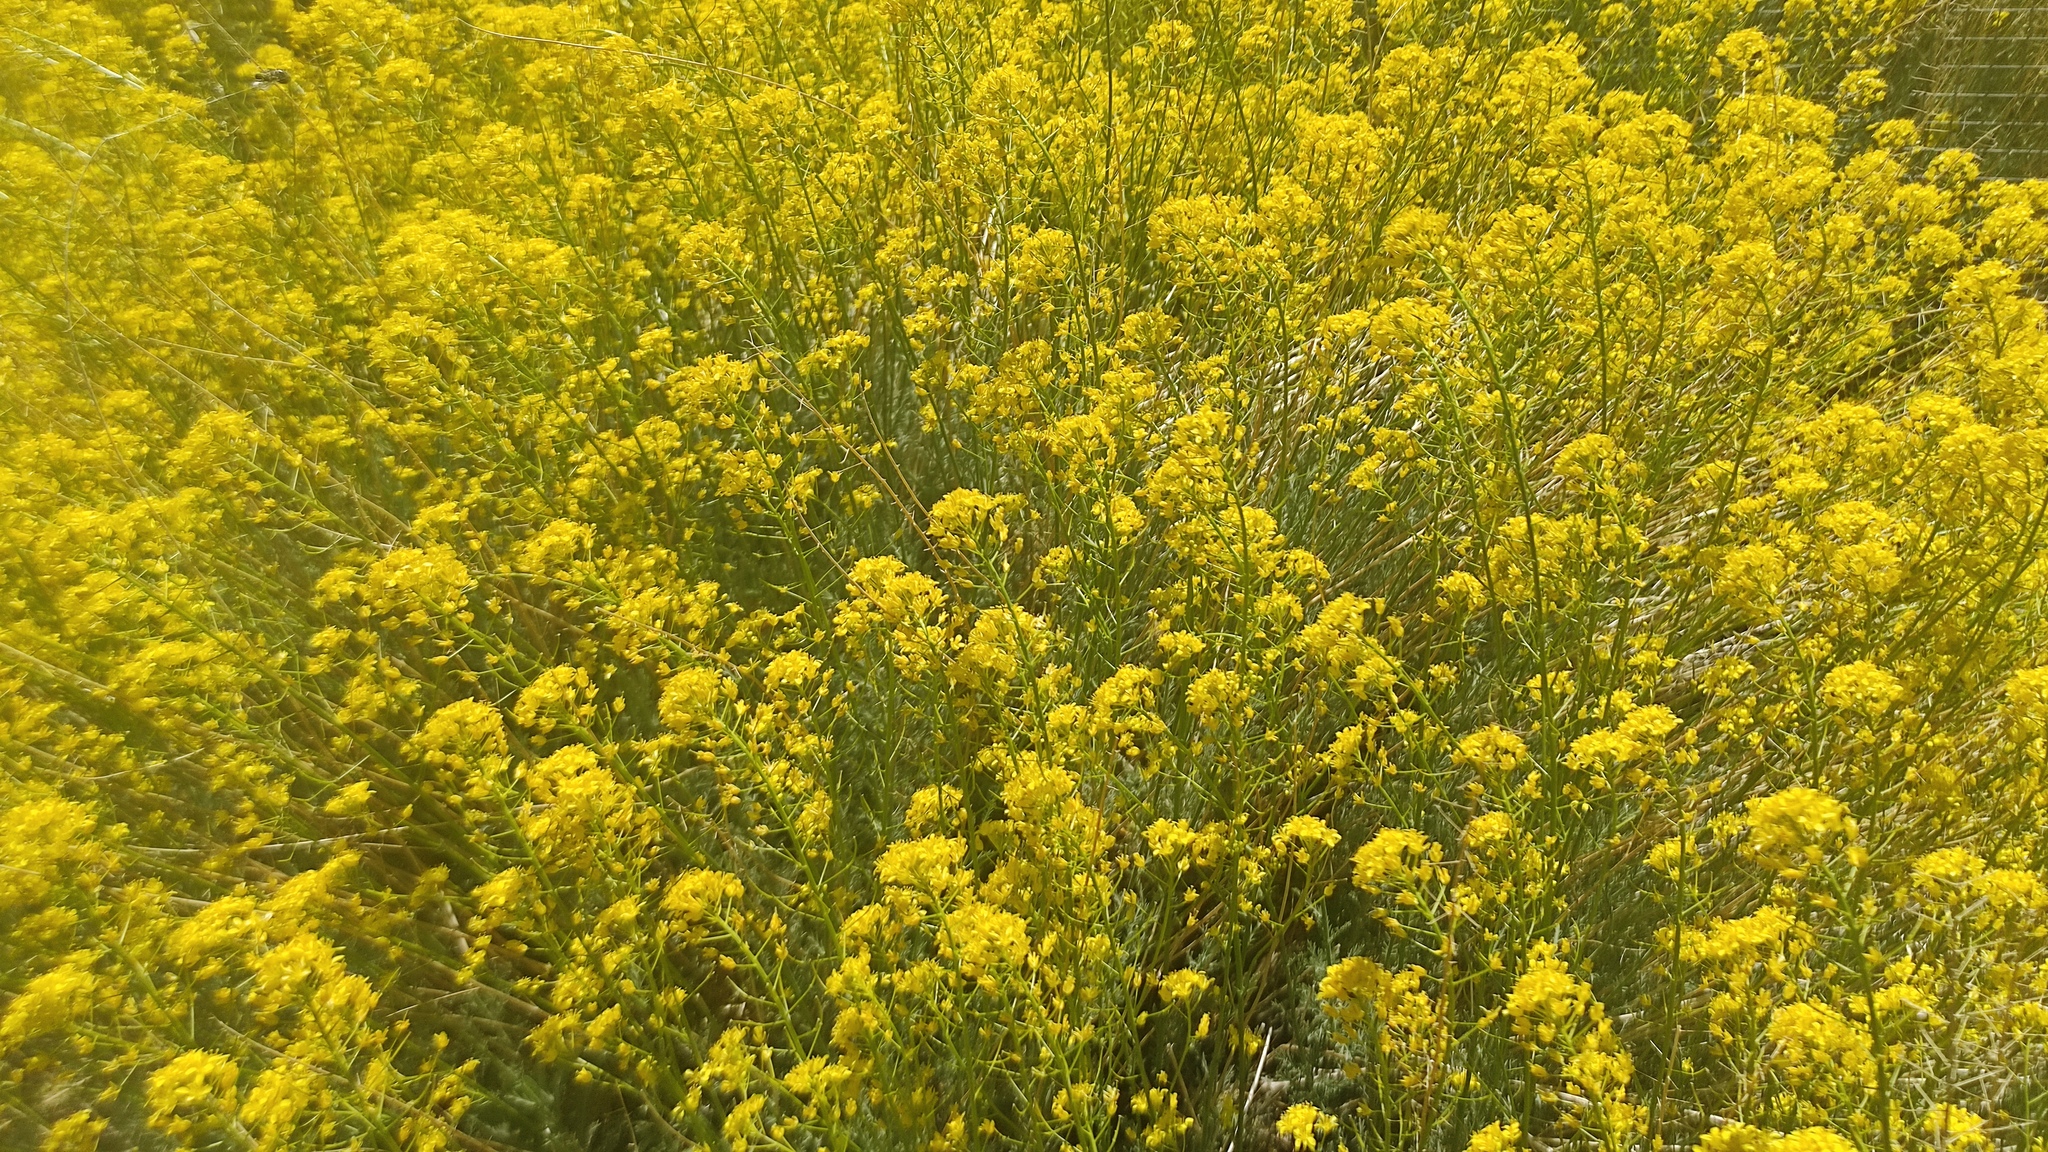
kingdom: Plantae
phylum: Tracheophyta
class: Magnoliopsida
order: Brassicales
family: Brassicaceae
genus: Descurainia
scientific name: Descurainia bourgaeana
